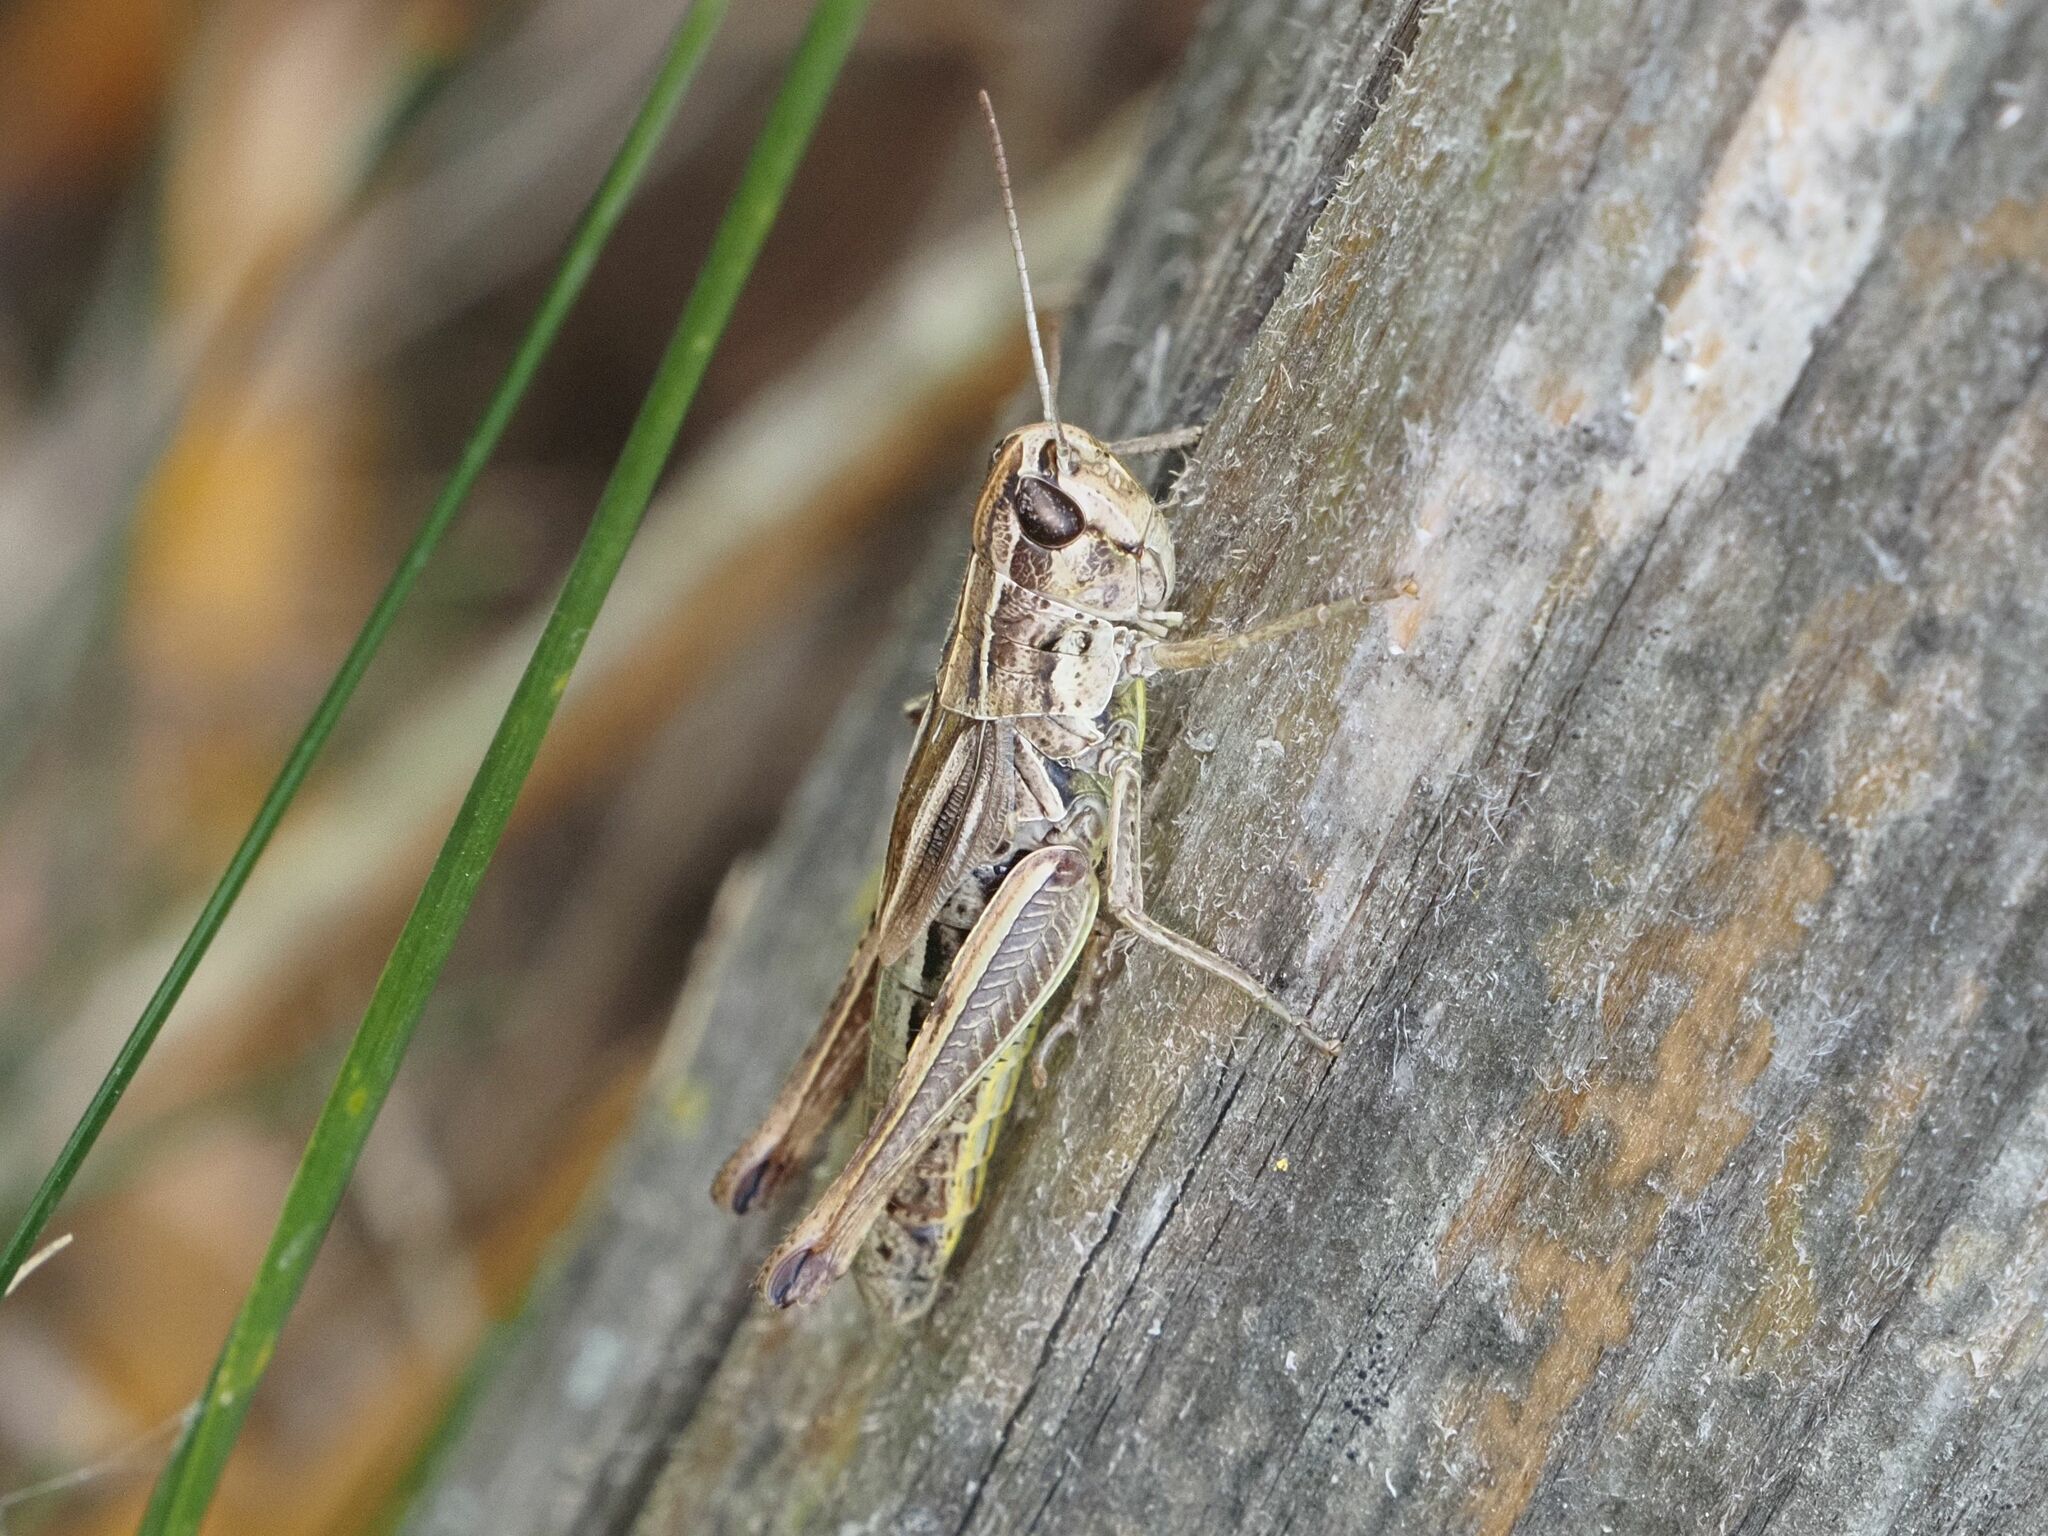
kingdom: Animalia
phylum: Arthropoda
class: Insecta
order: Orthoptera
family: Acrididae
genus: Pseudochorthippus
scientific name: Pseudochorthippus parallelus
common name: Meadow grasshopper
